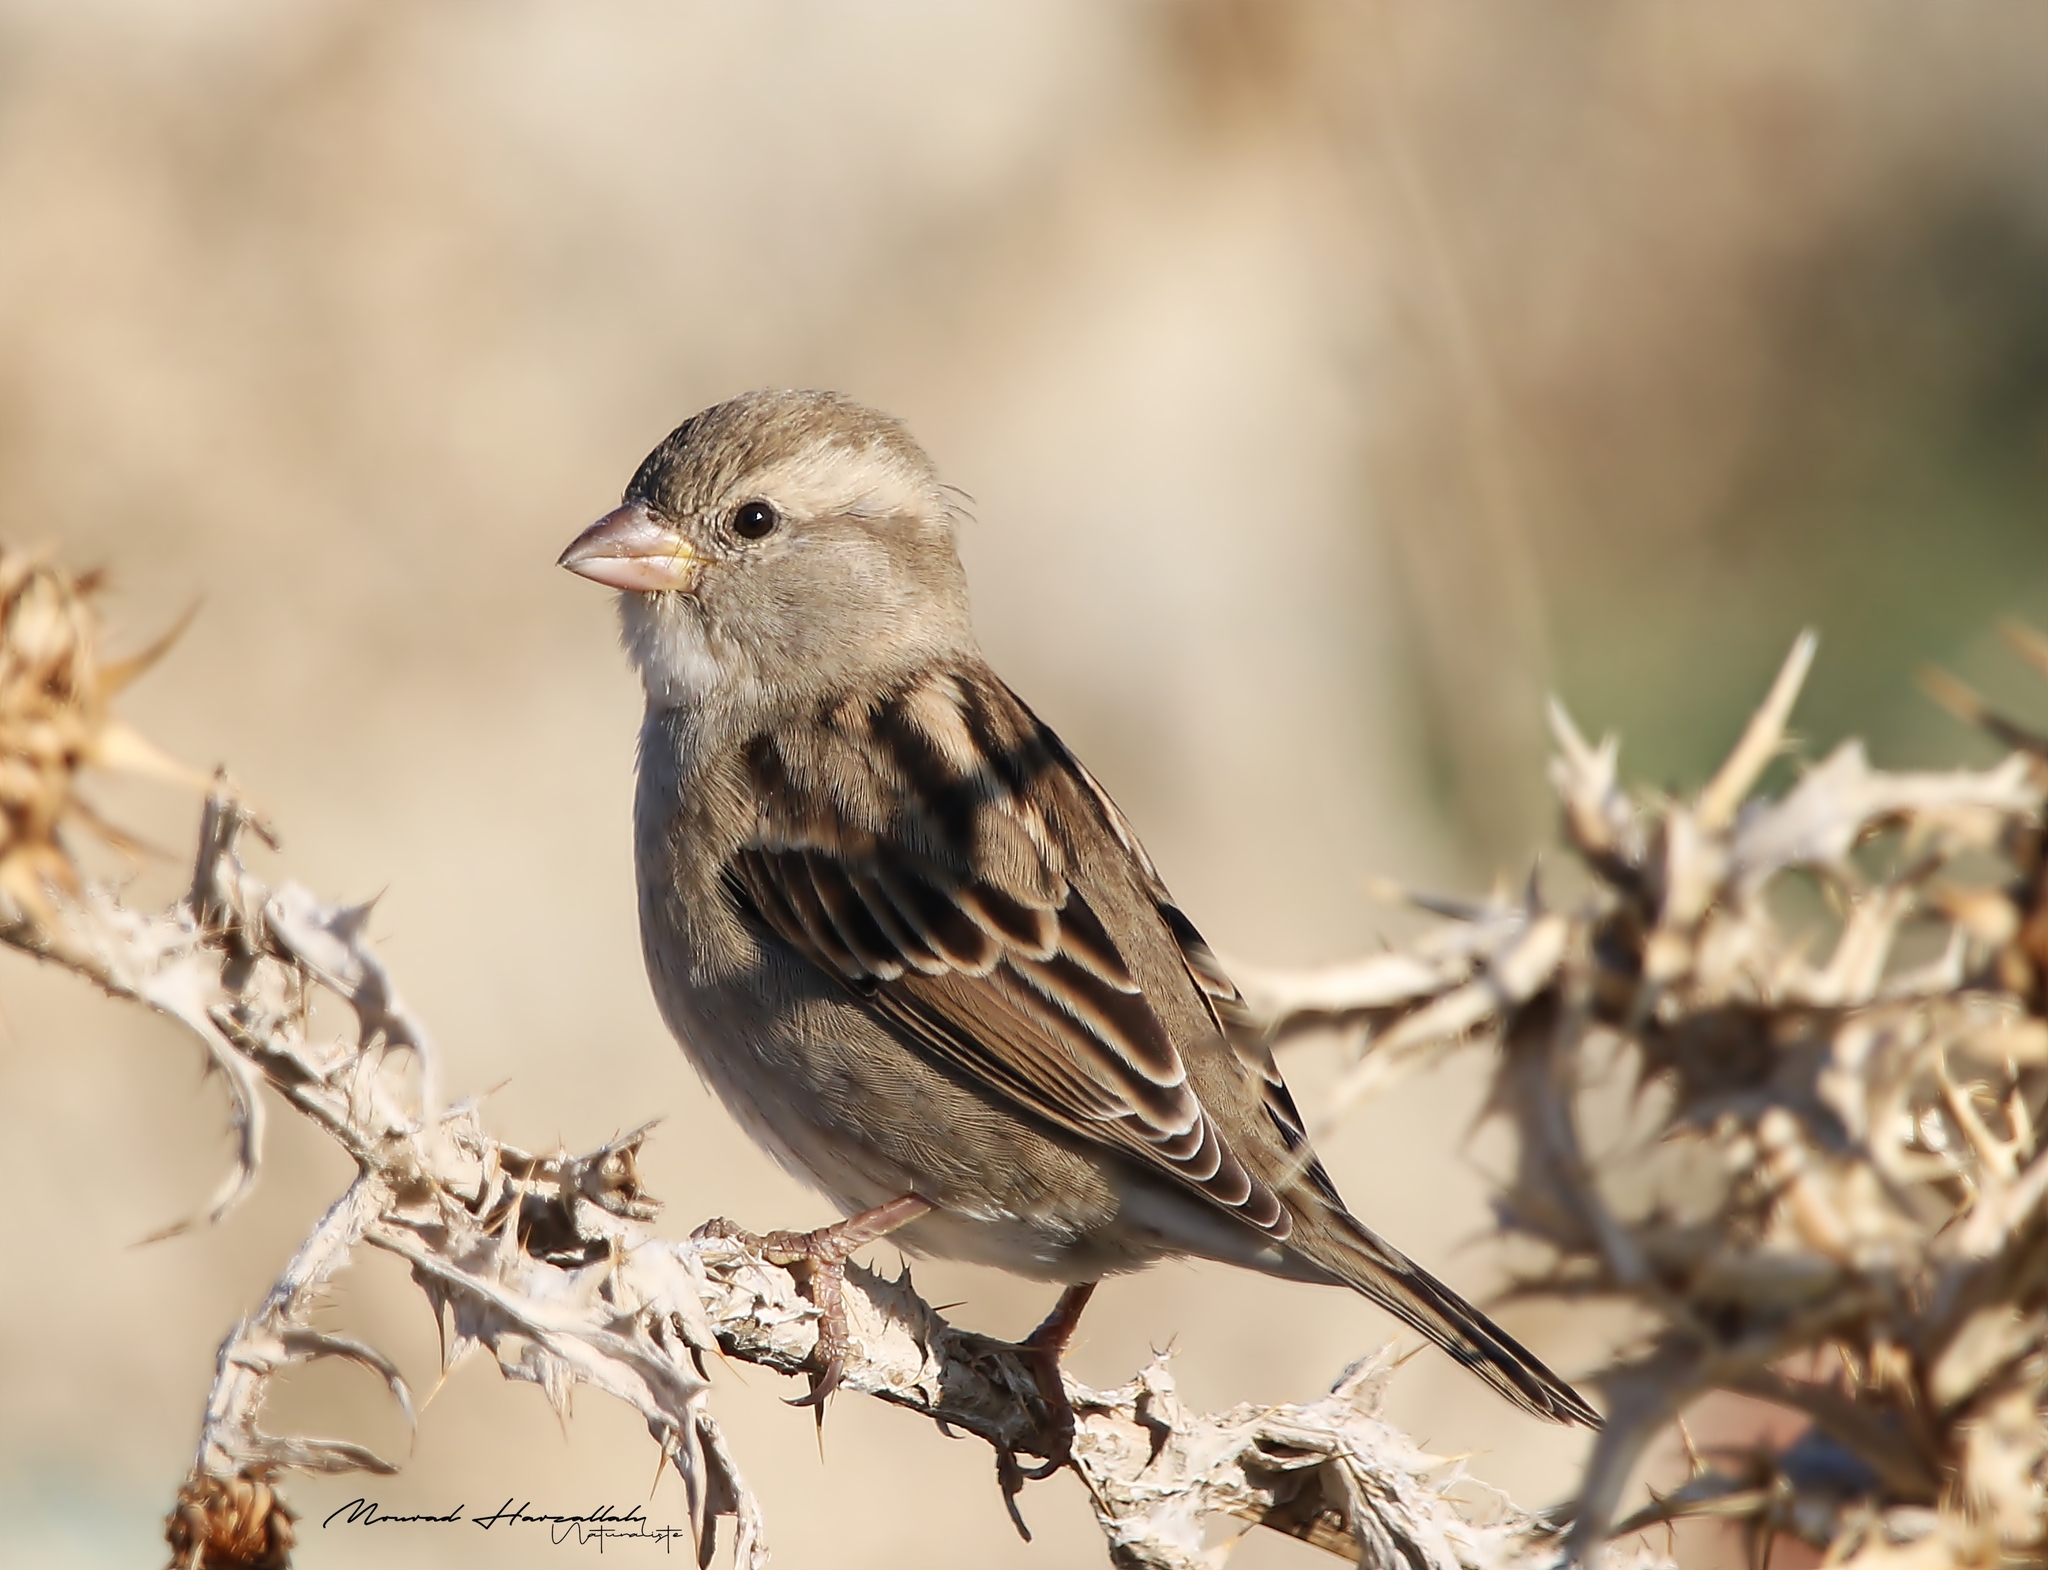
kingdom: Animalia
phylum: Chordata
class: Aves
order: Passeriformes
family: Passeridae
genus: Passer
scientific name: Passer hispaniolensis
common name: Spanish sparrow
